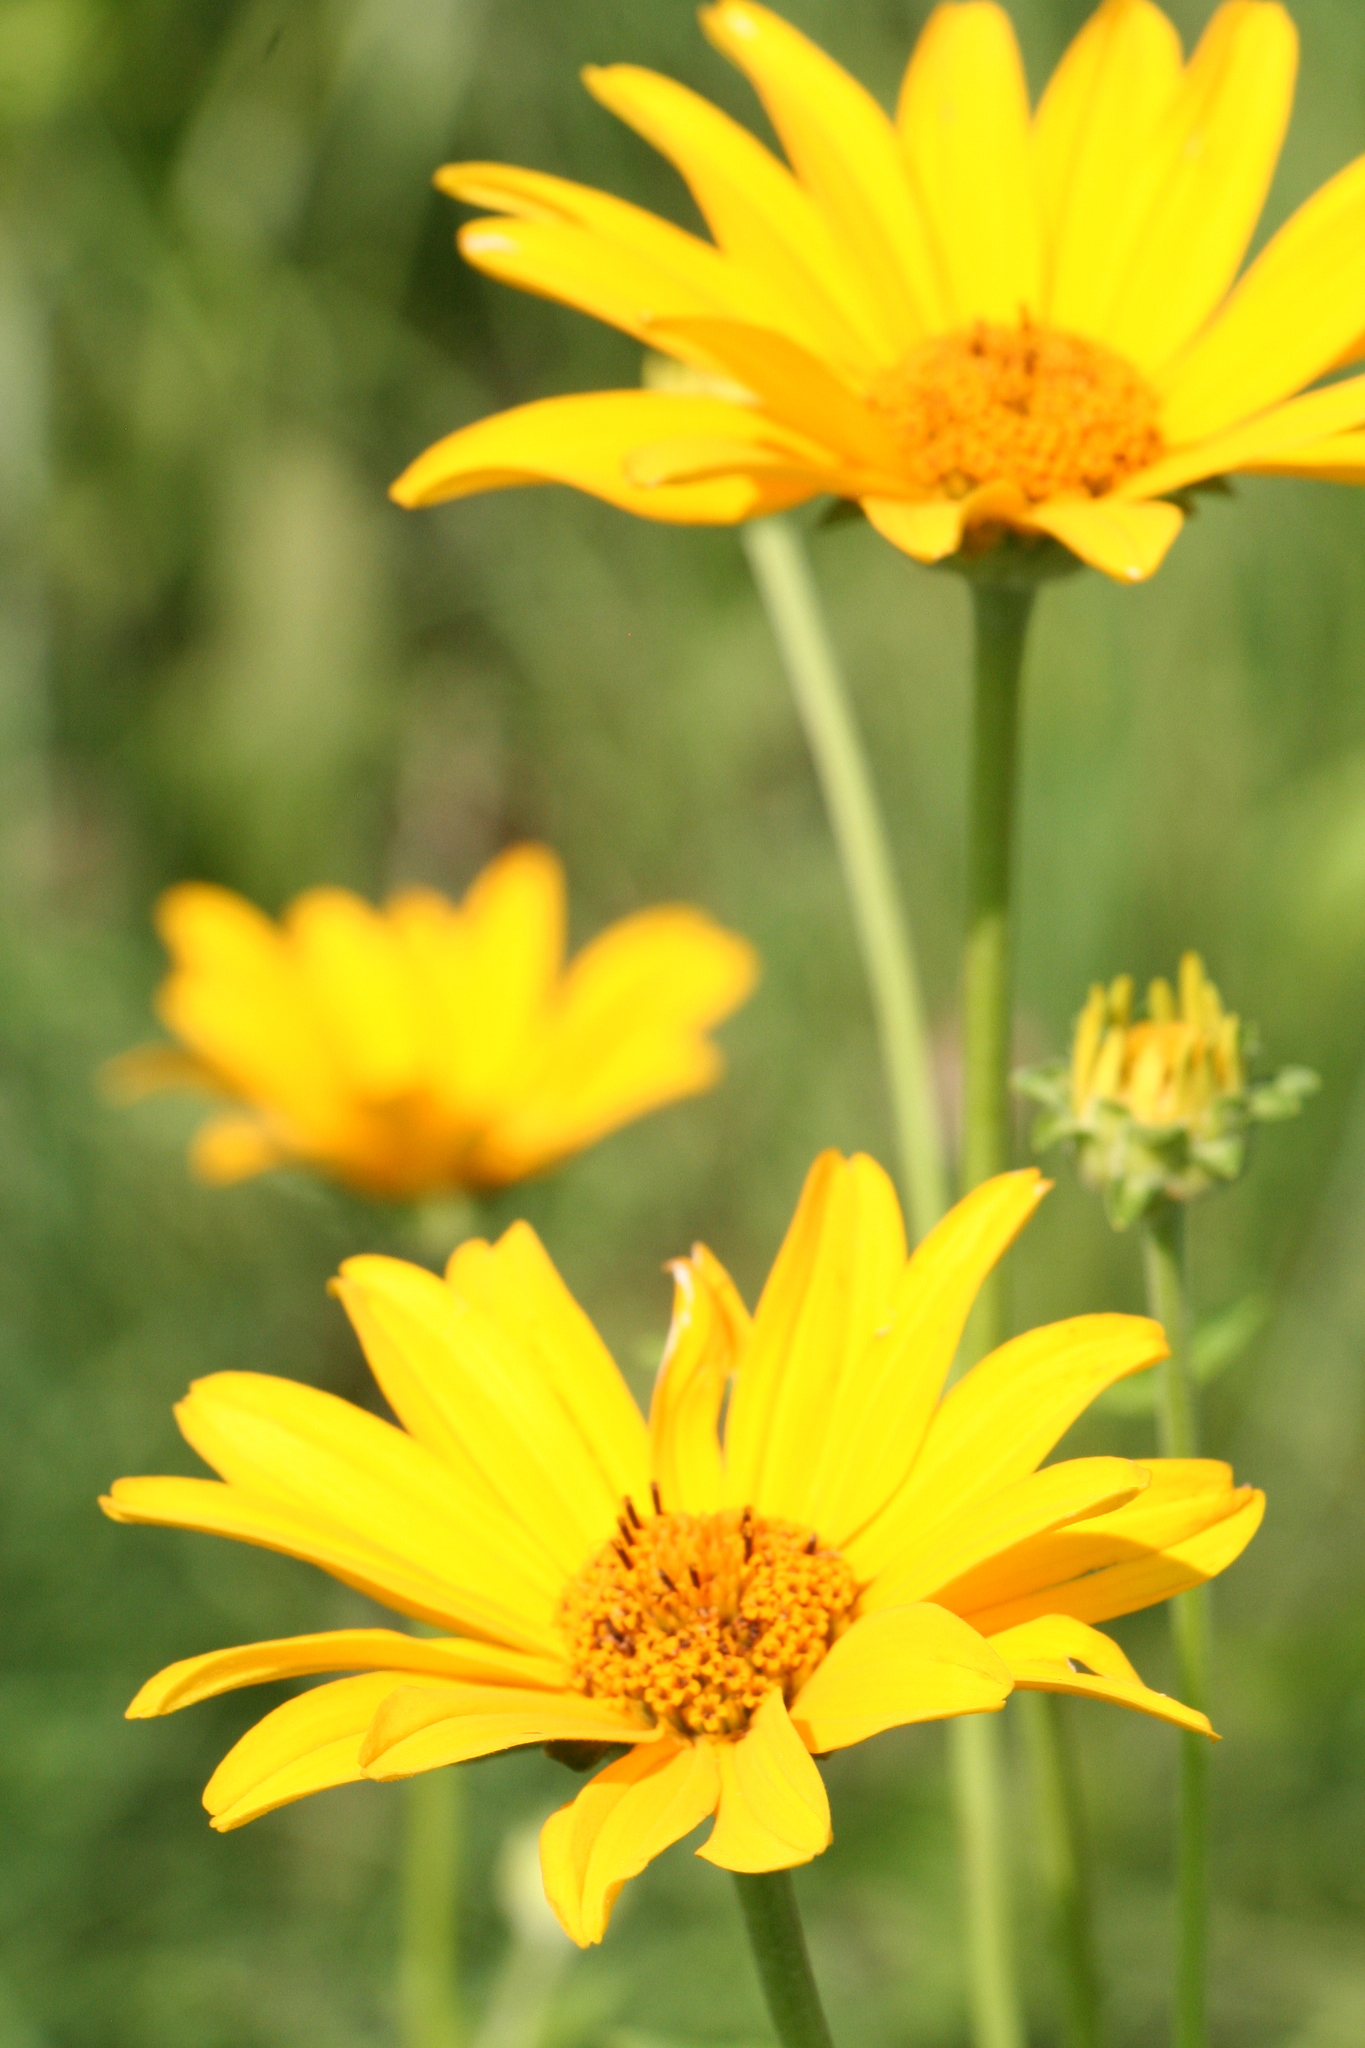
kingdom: Plantae
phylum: Tracheophyta
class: Magnoliopsida
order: Asterales
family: Asteraceae
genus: Heliopsis
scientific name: Heliopsis helianthoides
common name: False sunflower
